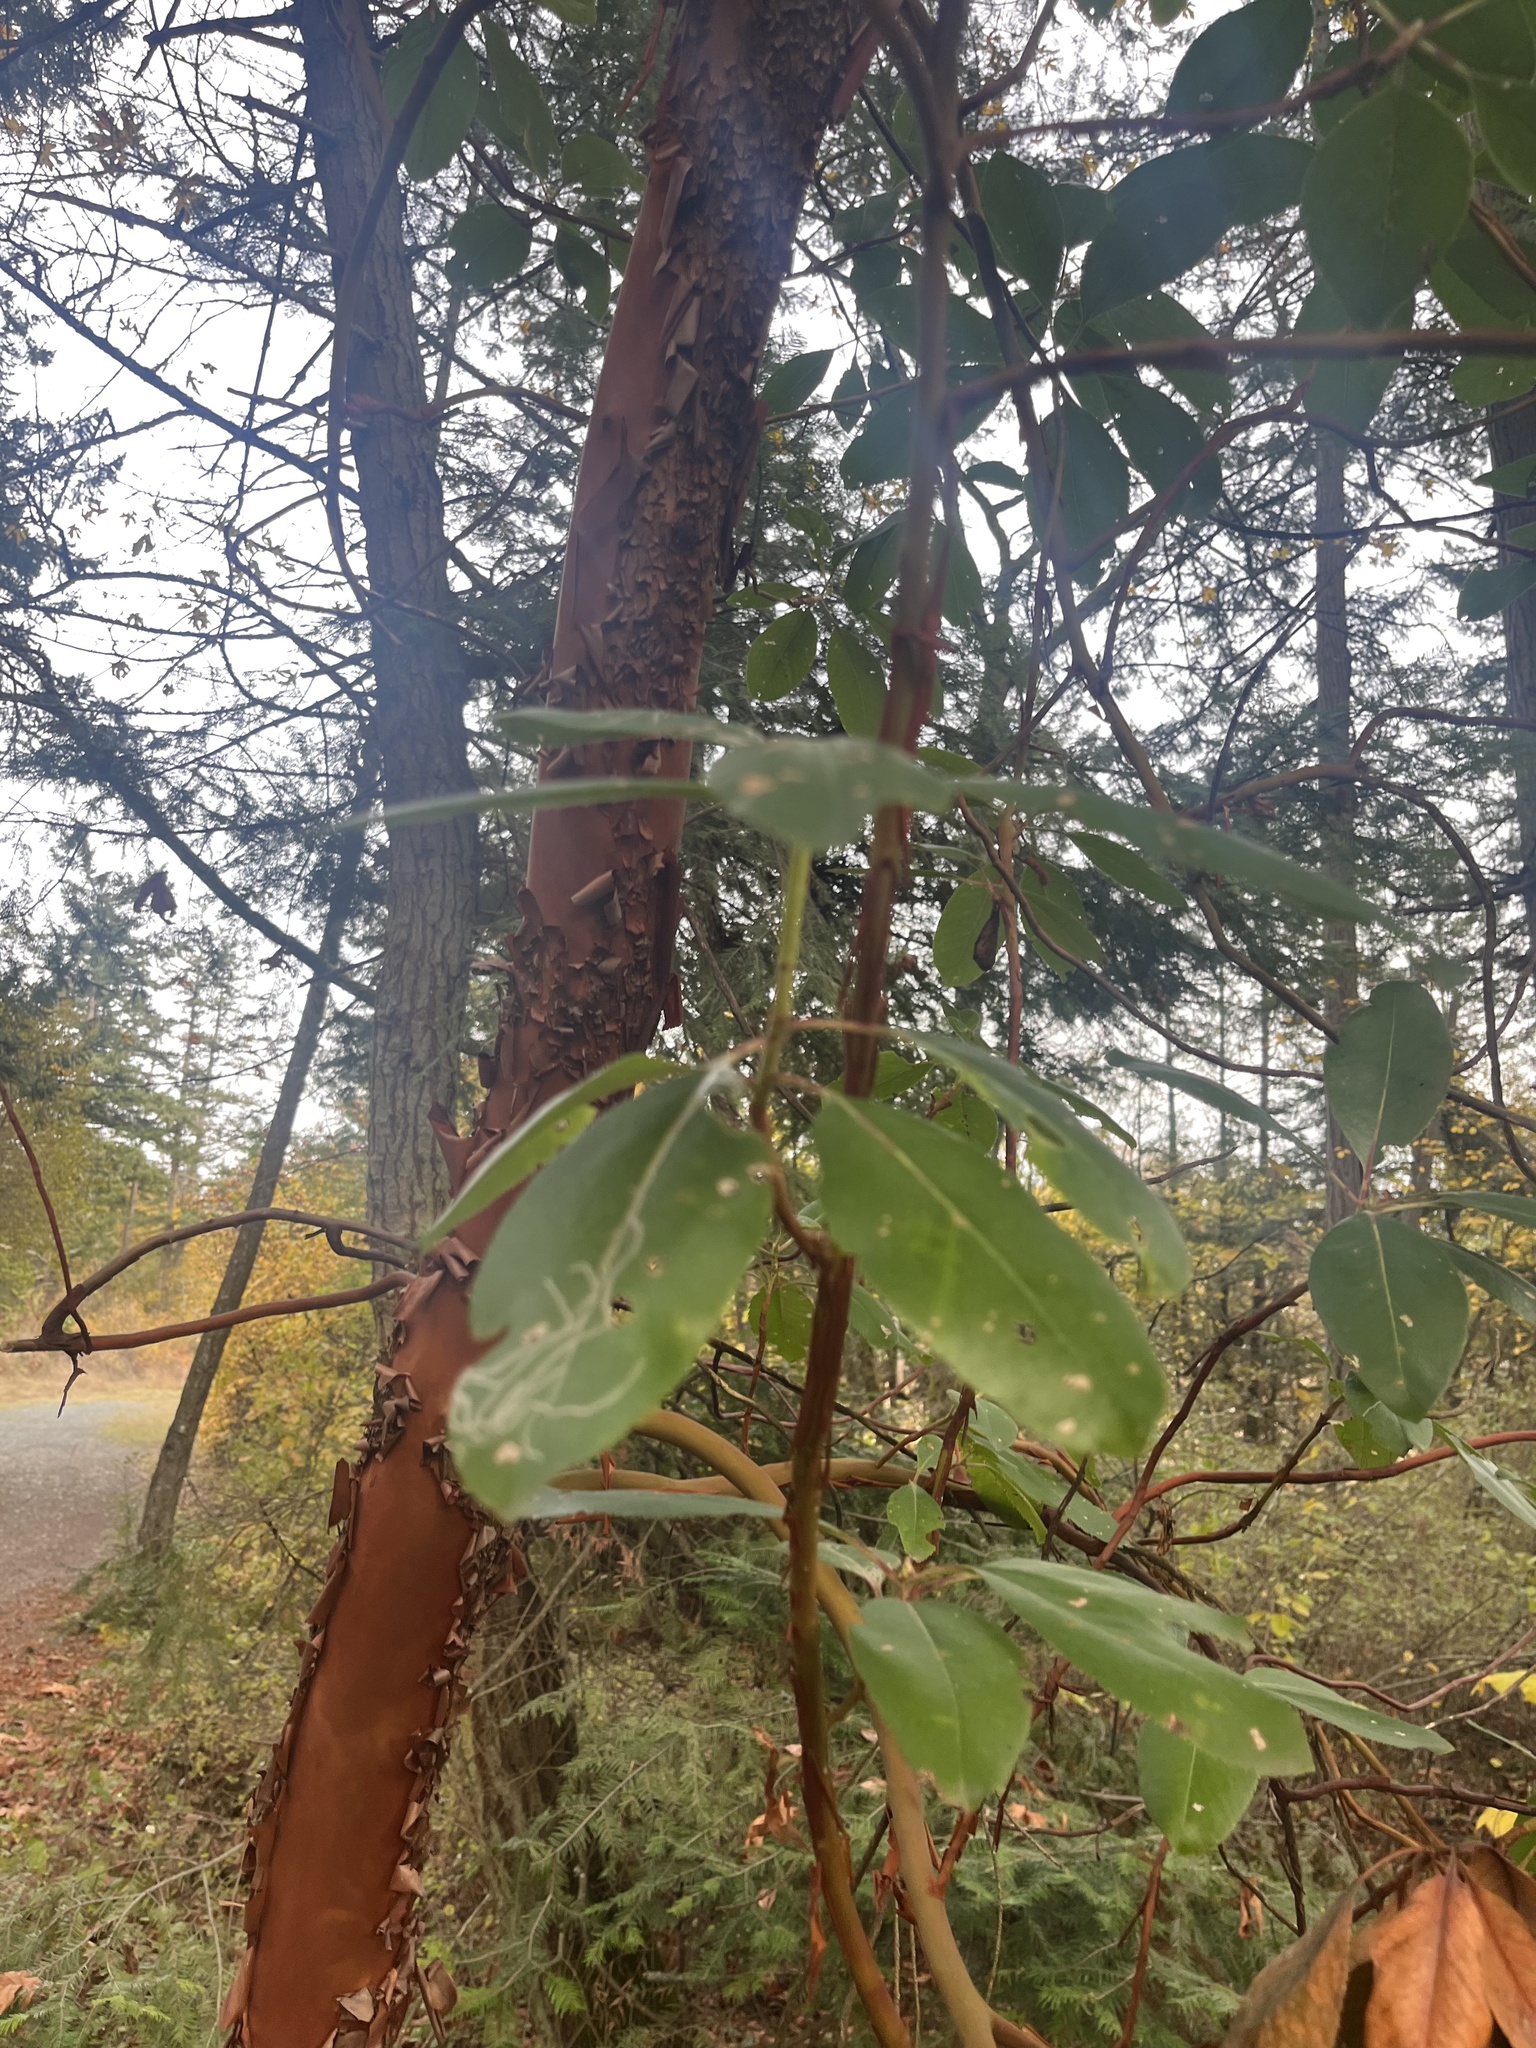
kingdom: Plantae
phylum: Tracheophyta
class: Magnoliopsida
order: Ericales
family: Ericaceae
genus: Arbutus
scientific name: Arbutus menziesii
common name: Pacific madrone
